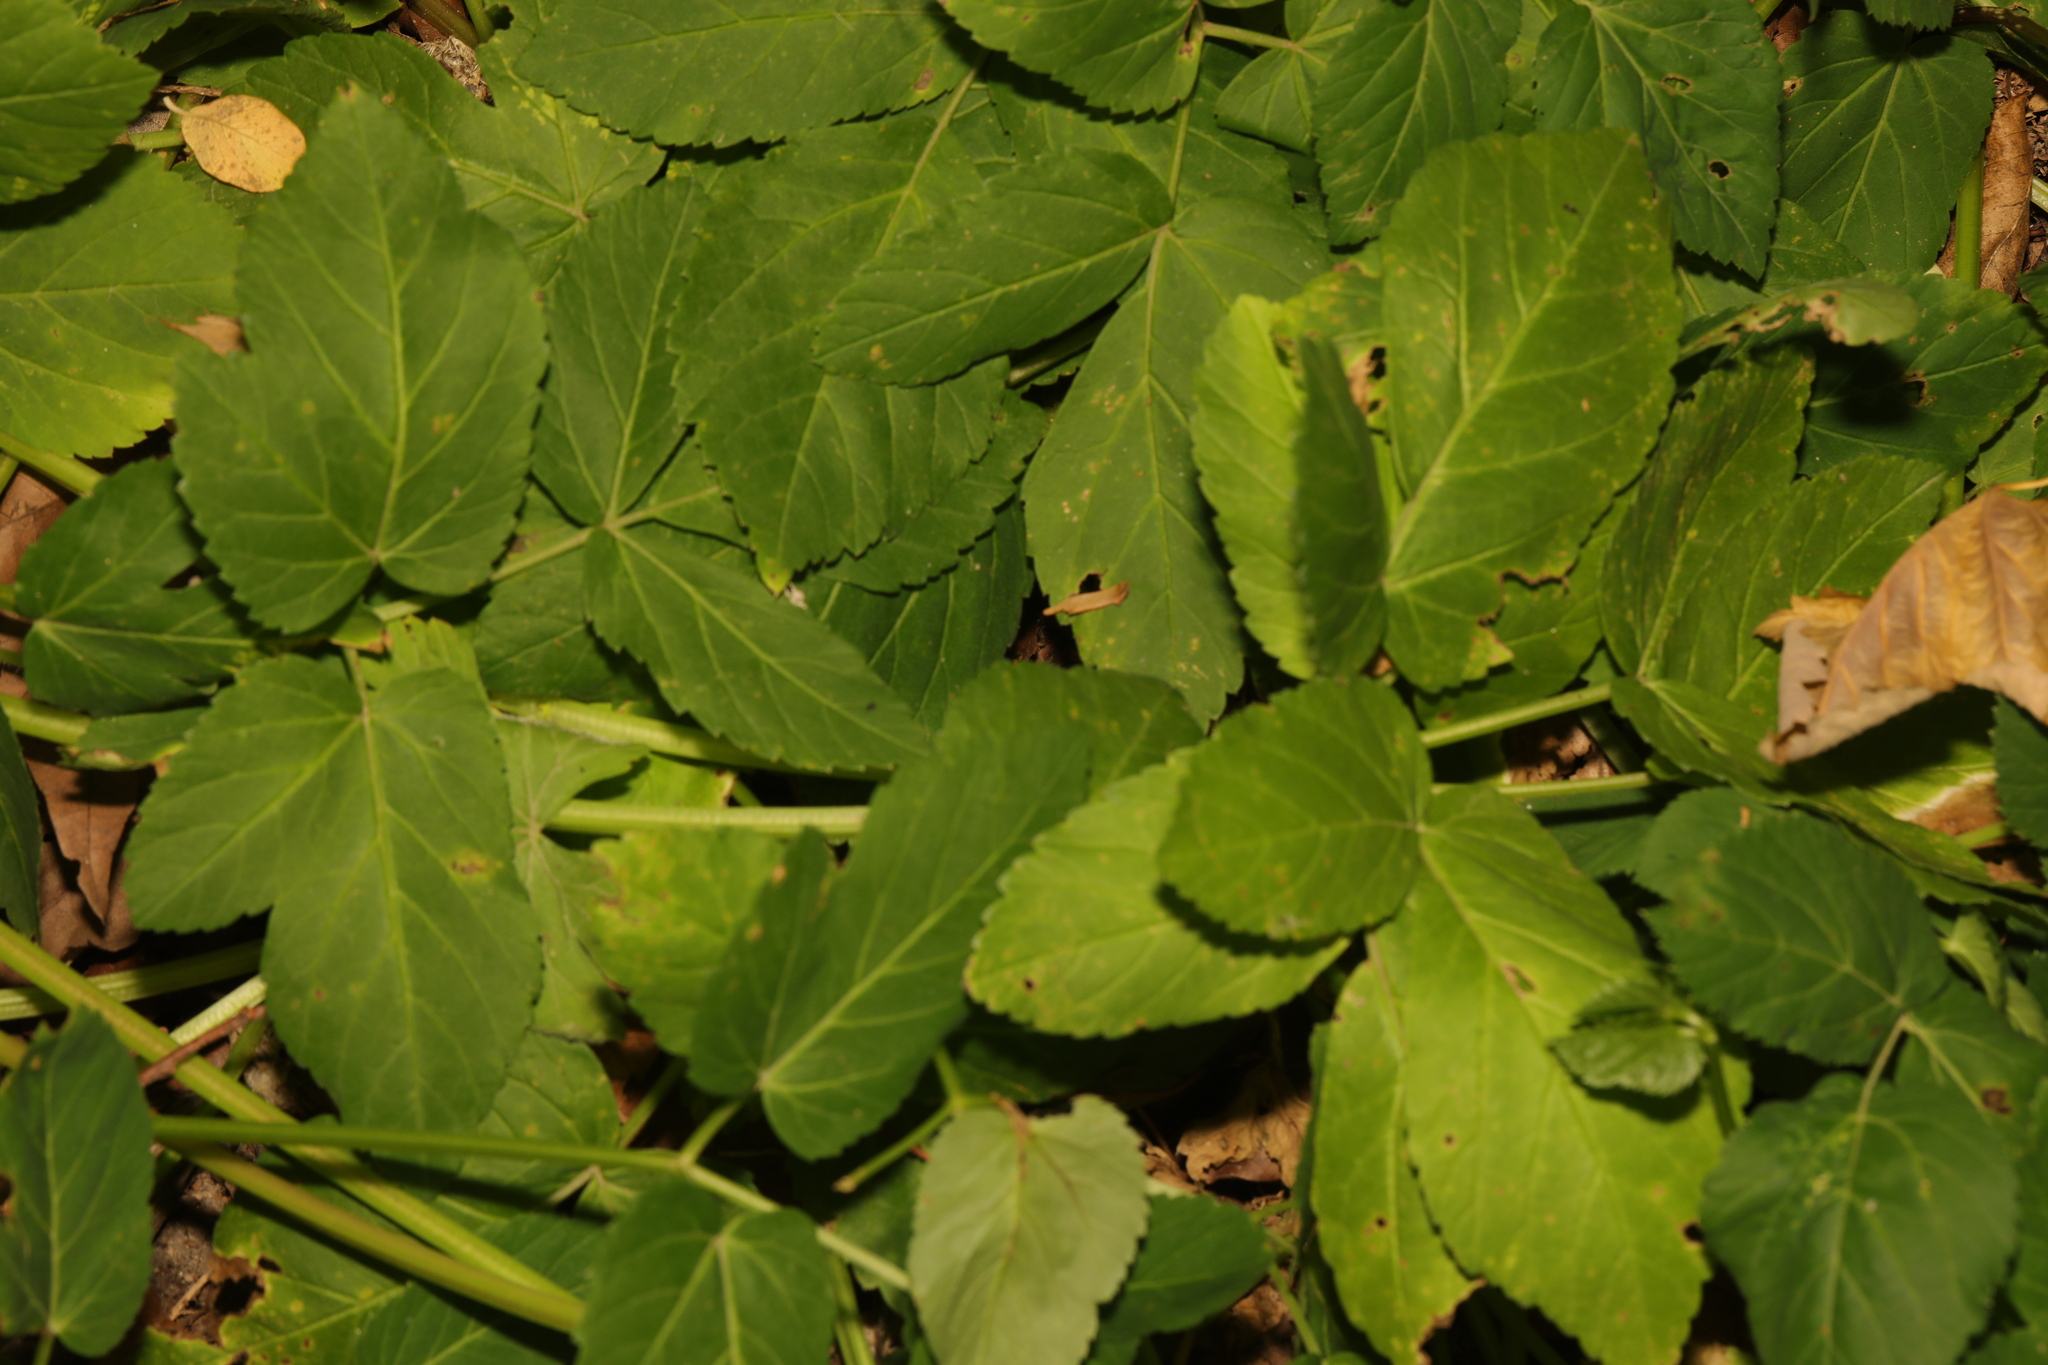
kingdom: Plantae
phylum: Tracheophyta
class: Magnoliopsida
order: Apiales
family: Apiaceae
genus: Aegopodium
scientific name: Aegopodium podagraria
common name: Ground-elder
